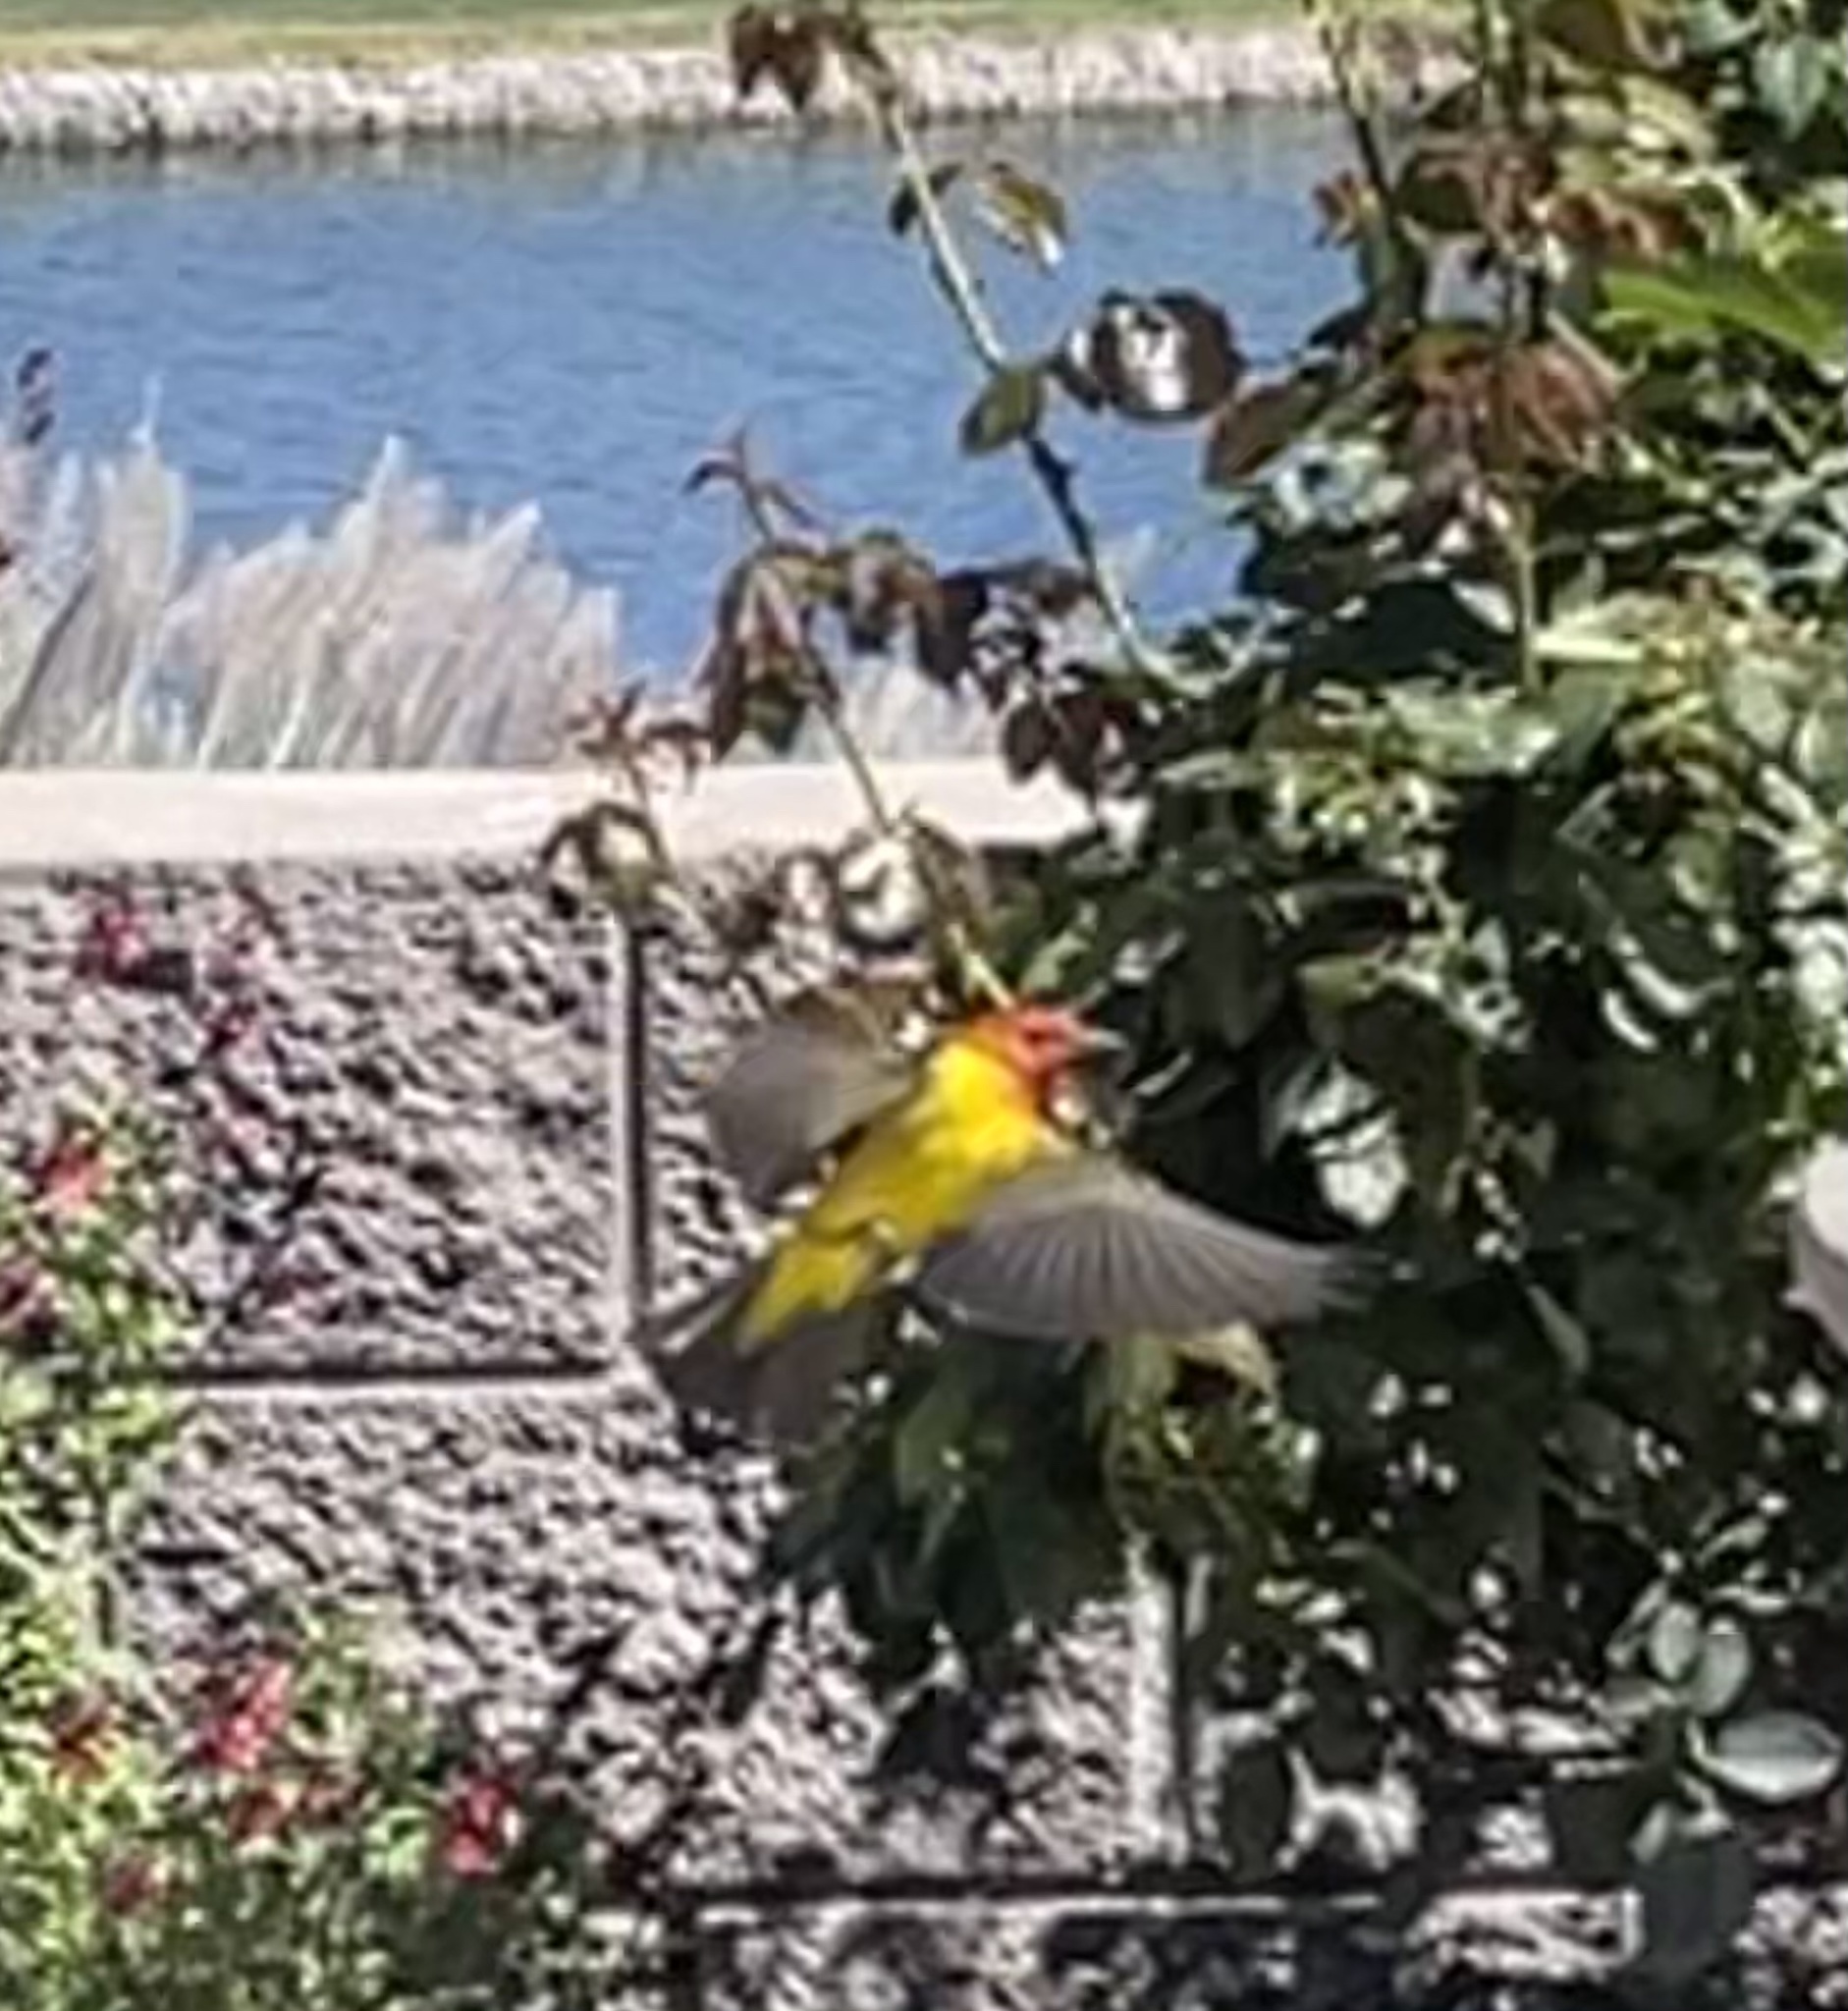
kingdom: Animalia
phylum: Chordata
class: Aves
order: Passeriformes
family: Cardinalidae
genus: Piranga
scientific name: Piranga ludoviciana
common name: Western tanager
